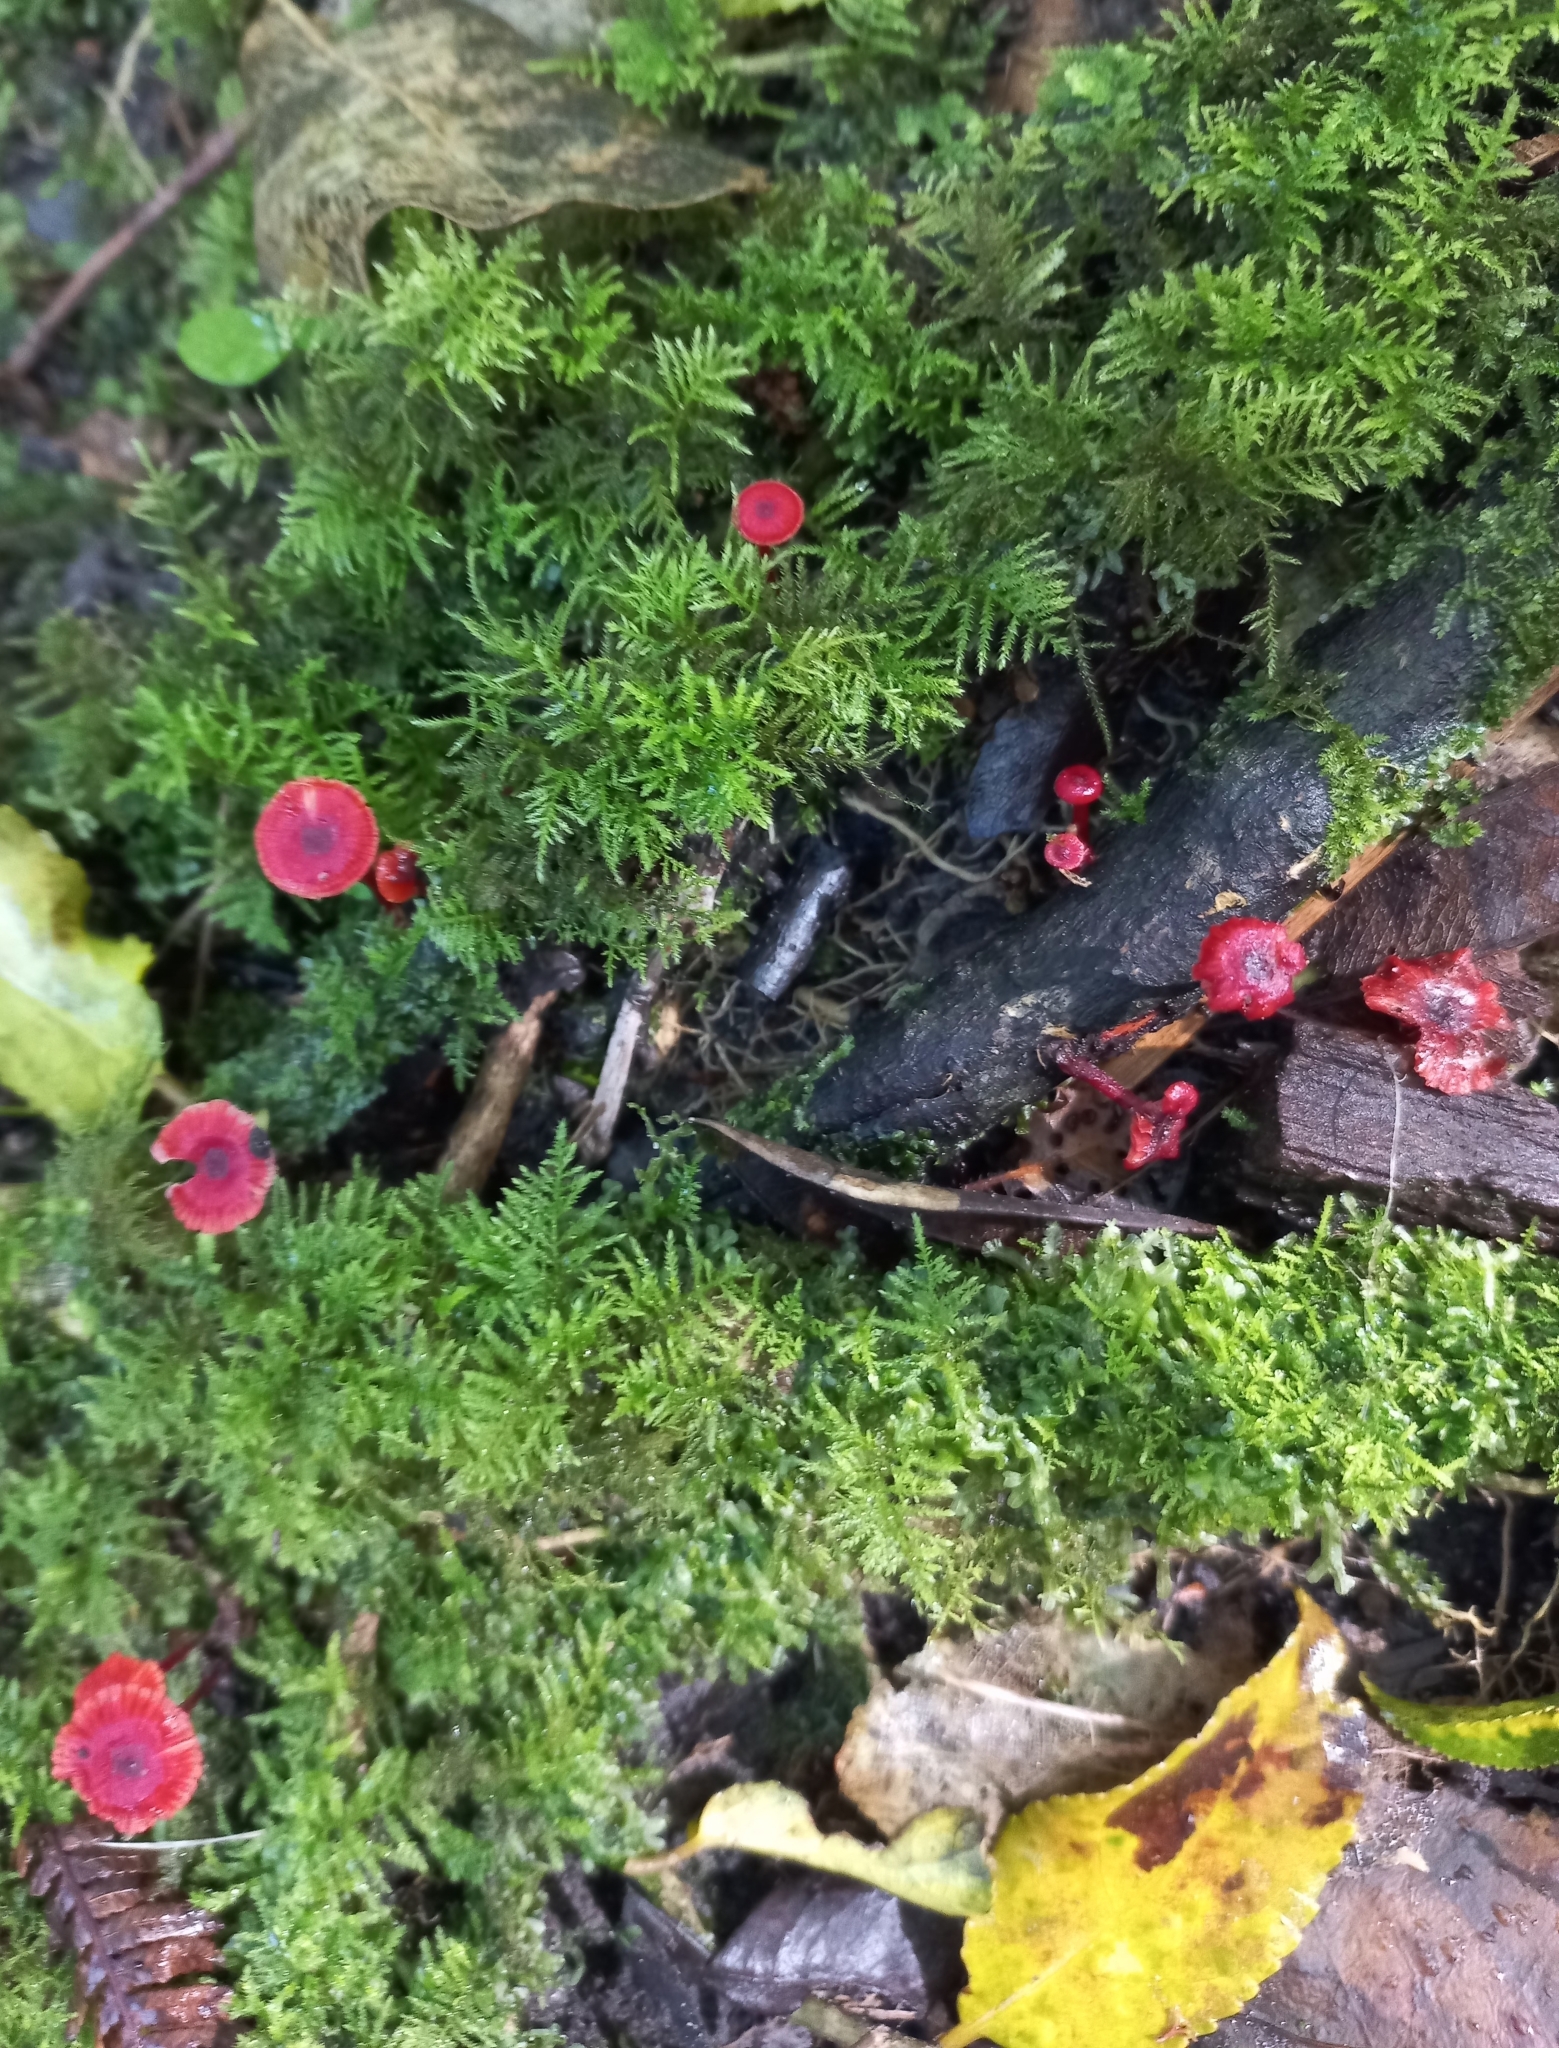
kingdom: Fungi
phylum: Basidiomycota
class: Agaricomycetes
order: Agaricales
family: Mycenaceae
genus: Cruentomycena
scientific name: Cruentomycena viscidocruenta
